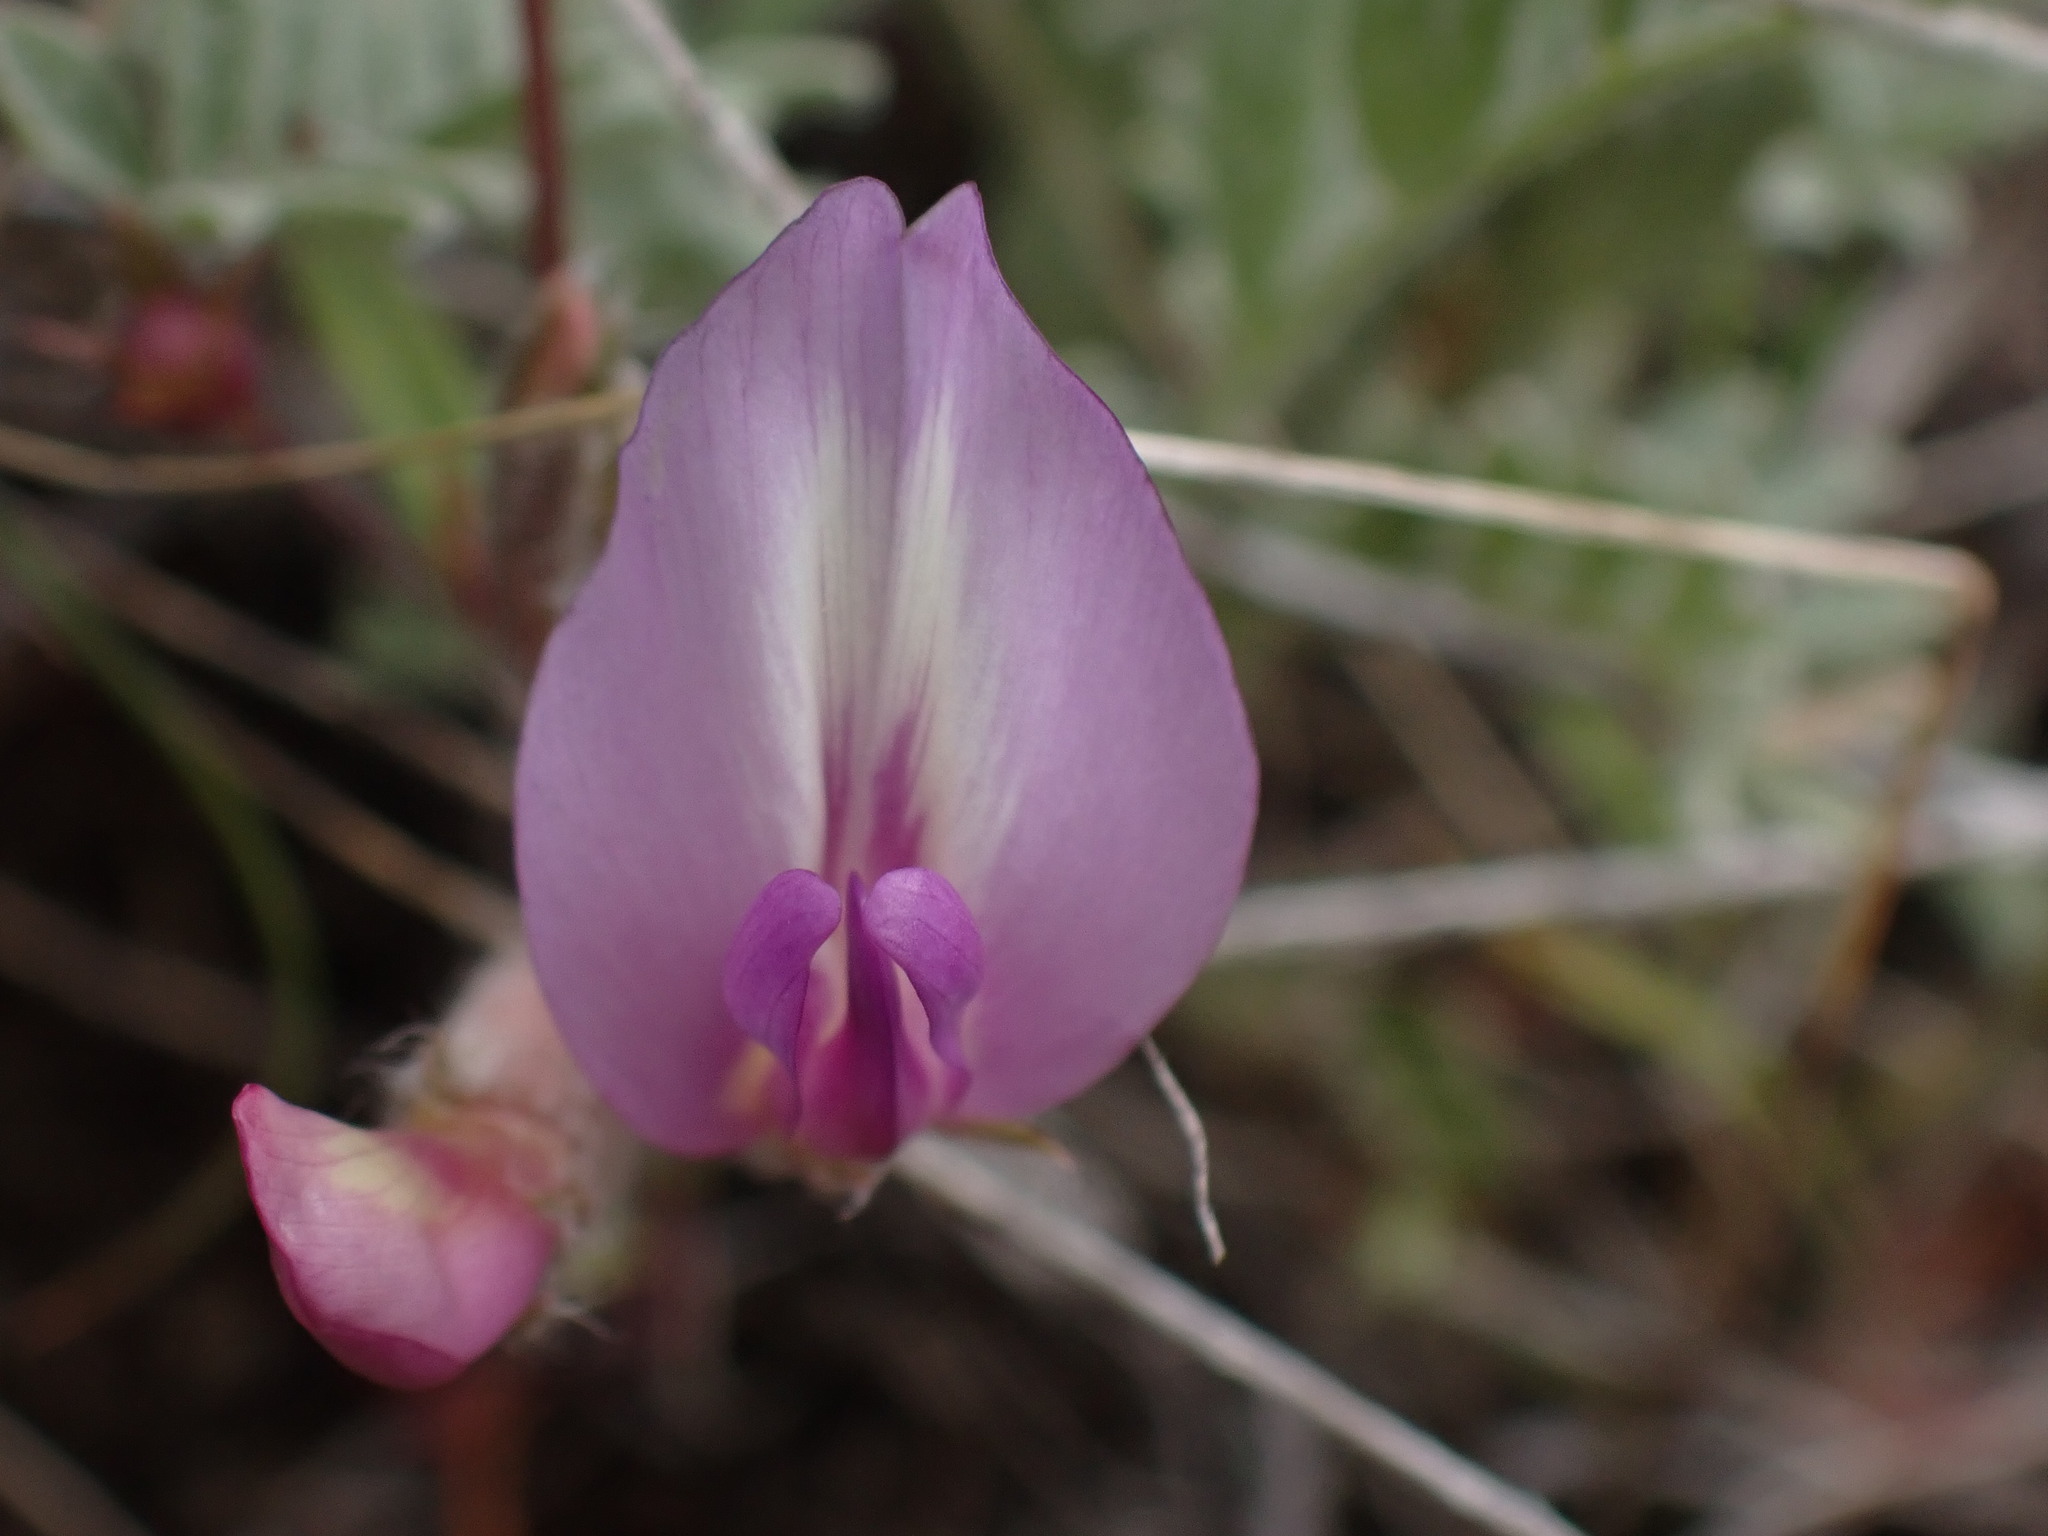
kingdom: Plantae
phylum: Tracheophyta
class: Magnoliopsida
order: Fabales
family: Fabaceae
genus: Astragalus
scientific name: Astragalus purshii
